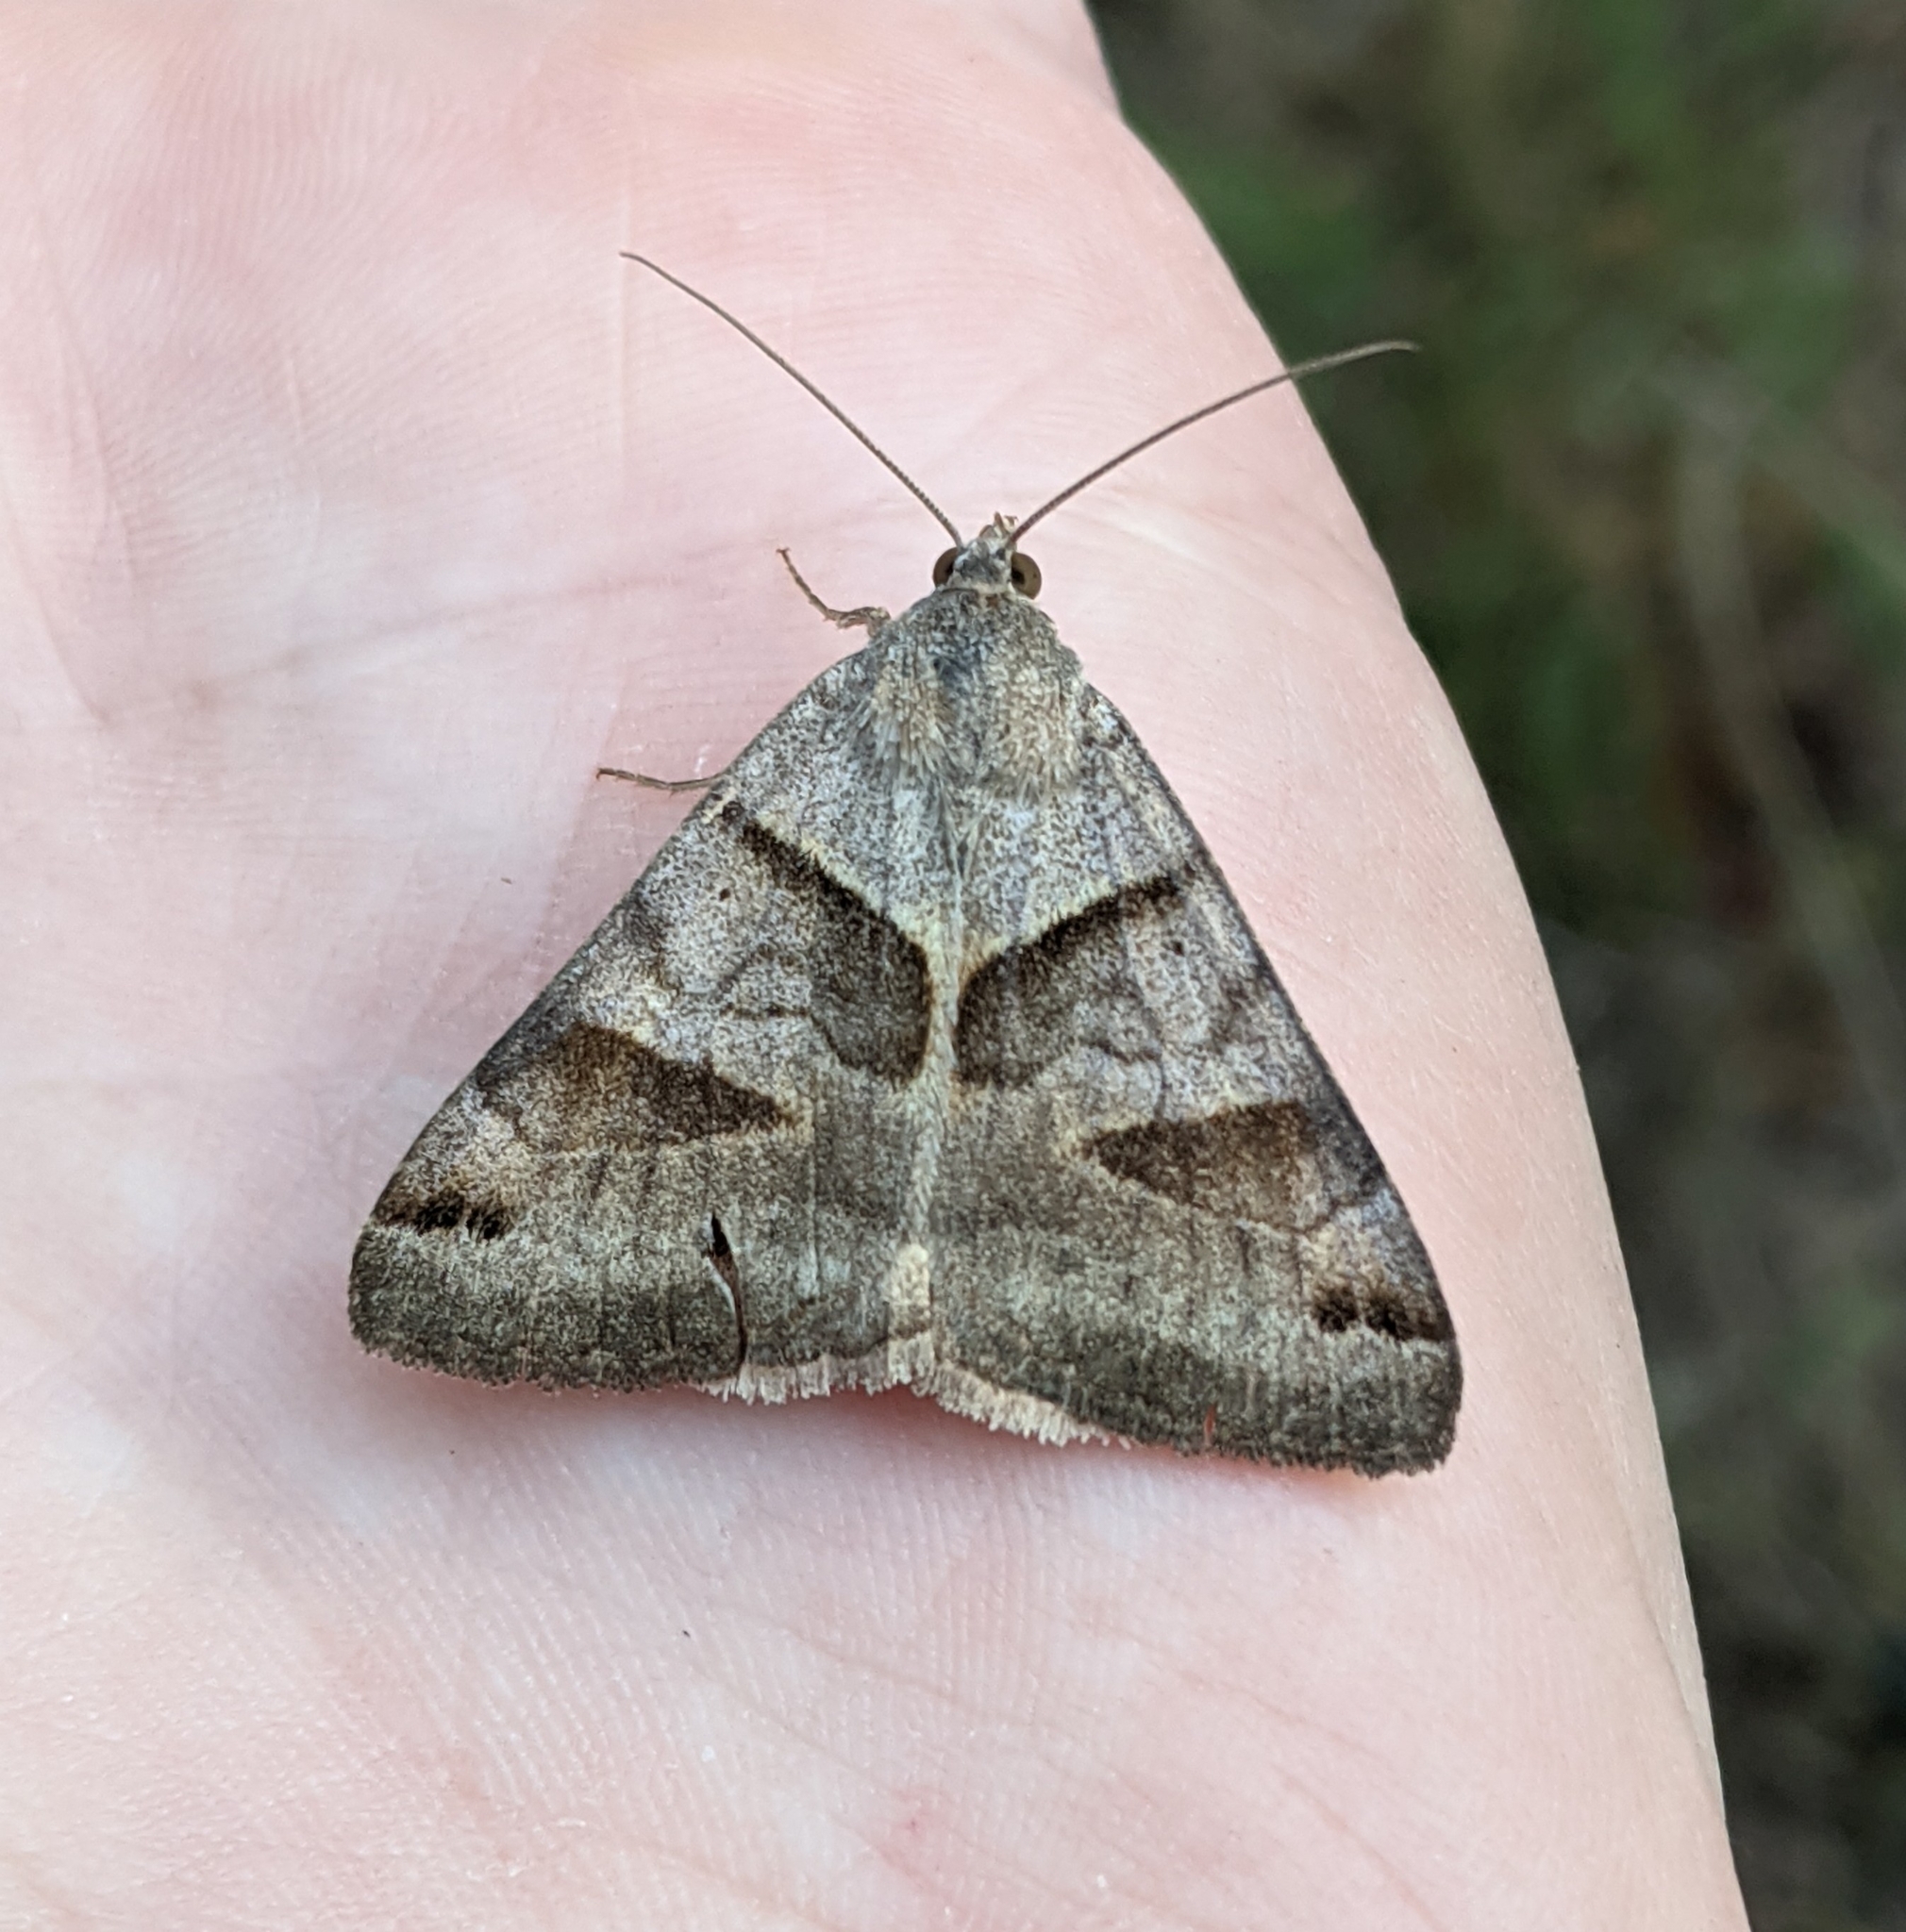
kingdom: Animalia
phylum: Arthropoda
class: Insecta
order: Lepidoptera
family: Erebidae
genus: Caenurgina
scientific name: Caenurgina erechtea
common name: Forage looper moth
